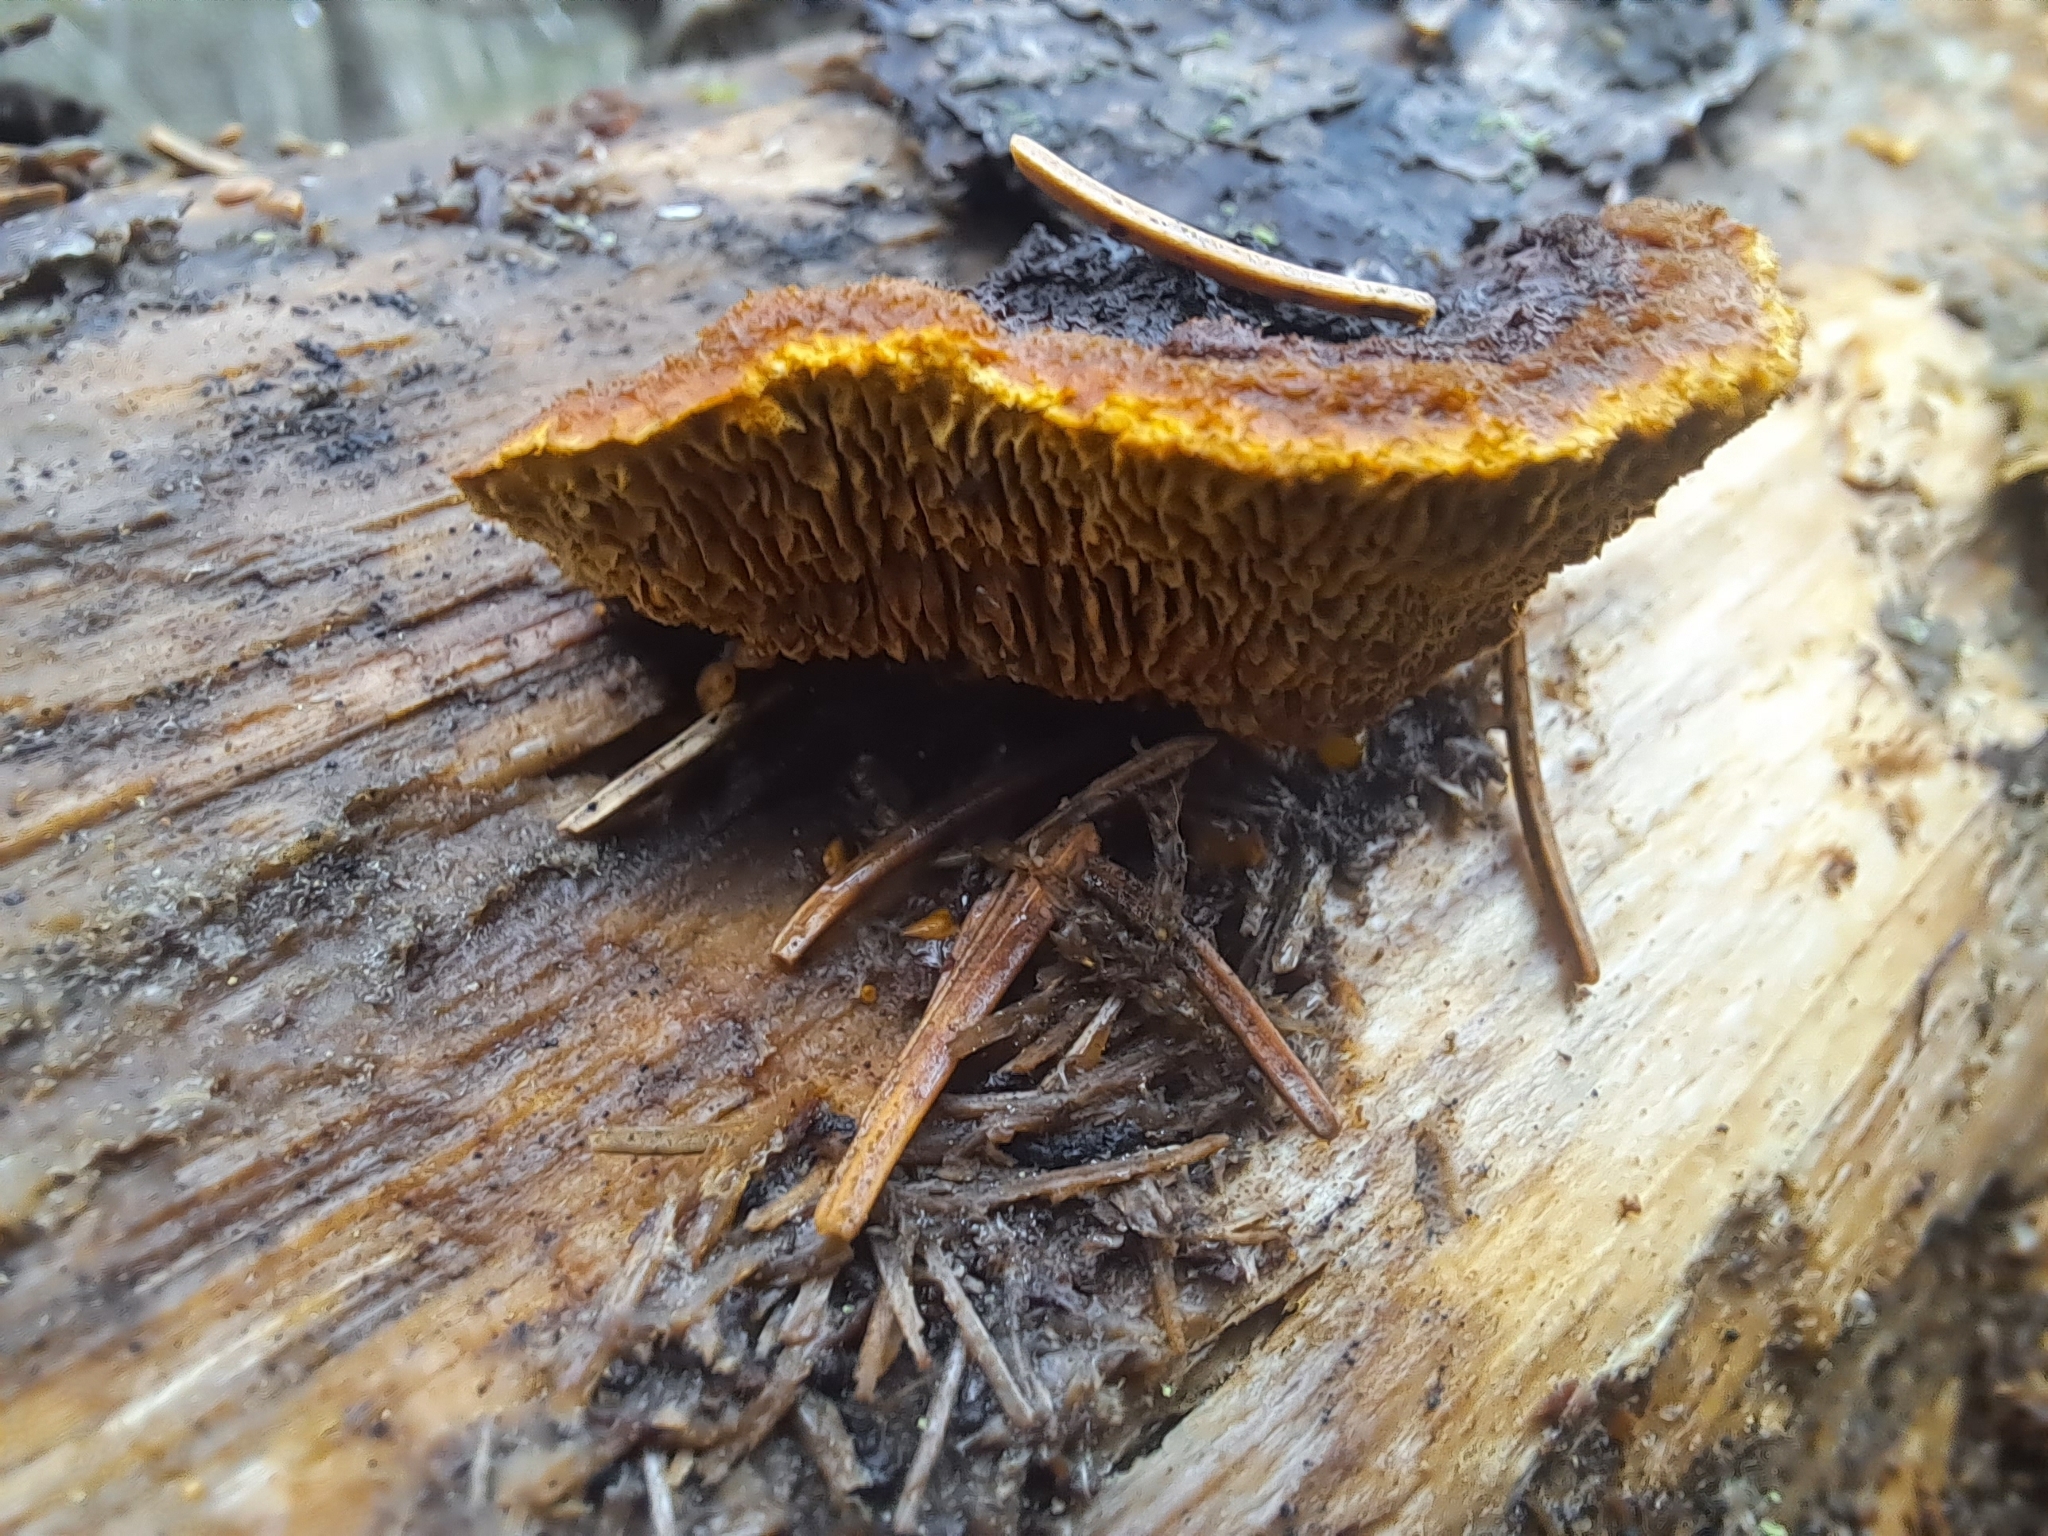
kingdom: Fungi
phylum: Basidiomycota
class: Agaricomycetes
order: Gloeophyllales
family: Gloeophyllaceae
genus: Gloeophyllum
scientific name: Gloeophyllum sepiarium
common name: Conifer mazegill
